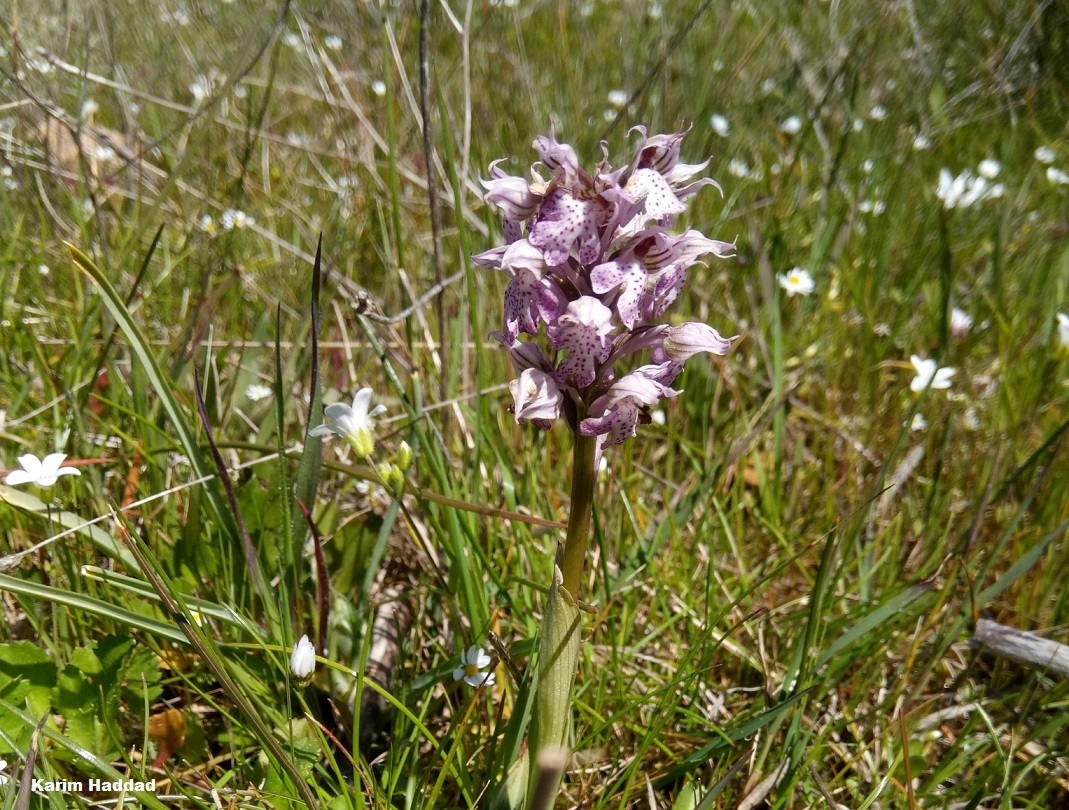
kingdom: Plantae
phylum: Tracheophyta
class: Liliopsida
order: Asparagales
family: Orchidaceae
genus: Neotinea
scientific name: Neotinea lactea
